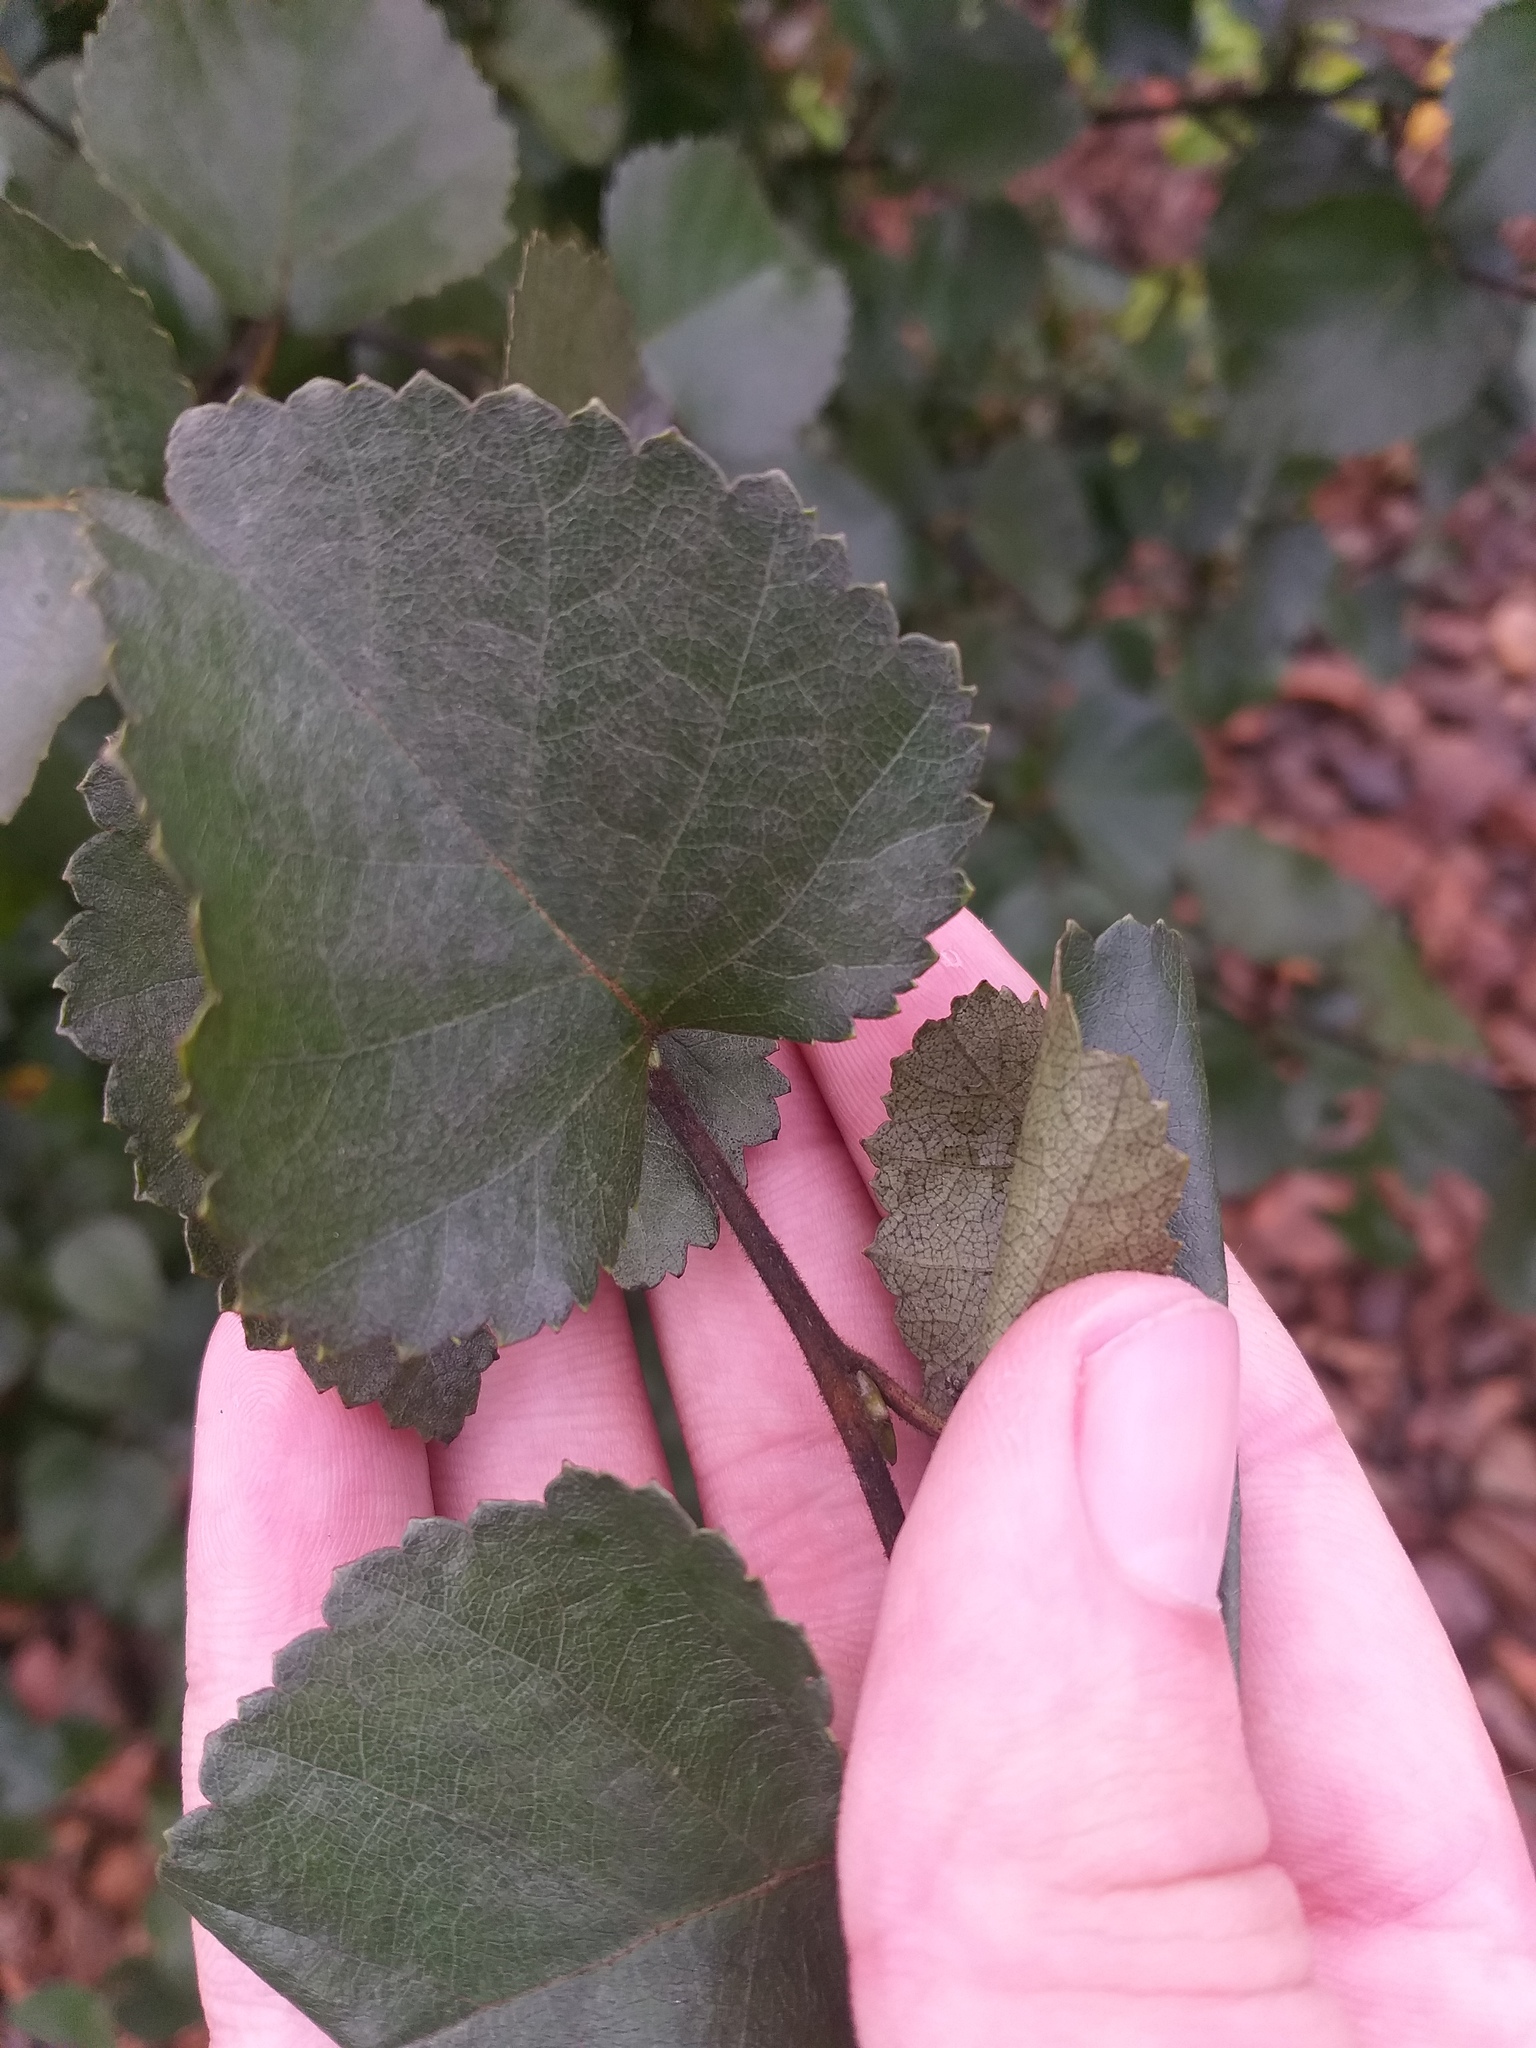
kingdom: Plantae
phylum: Tracheophyta
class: Magnoliopsida
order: Fagales
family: Betulaceae
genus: Betula
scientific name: Betula pubescens
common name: Downy birch
